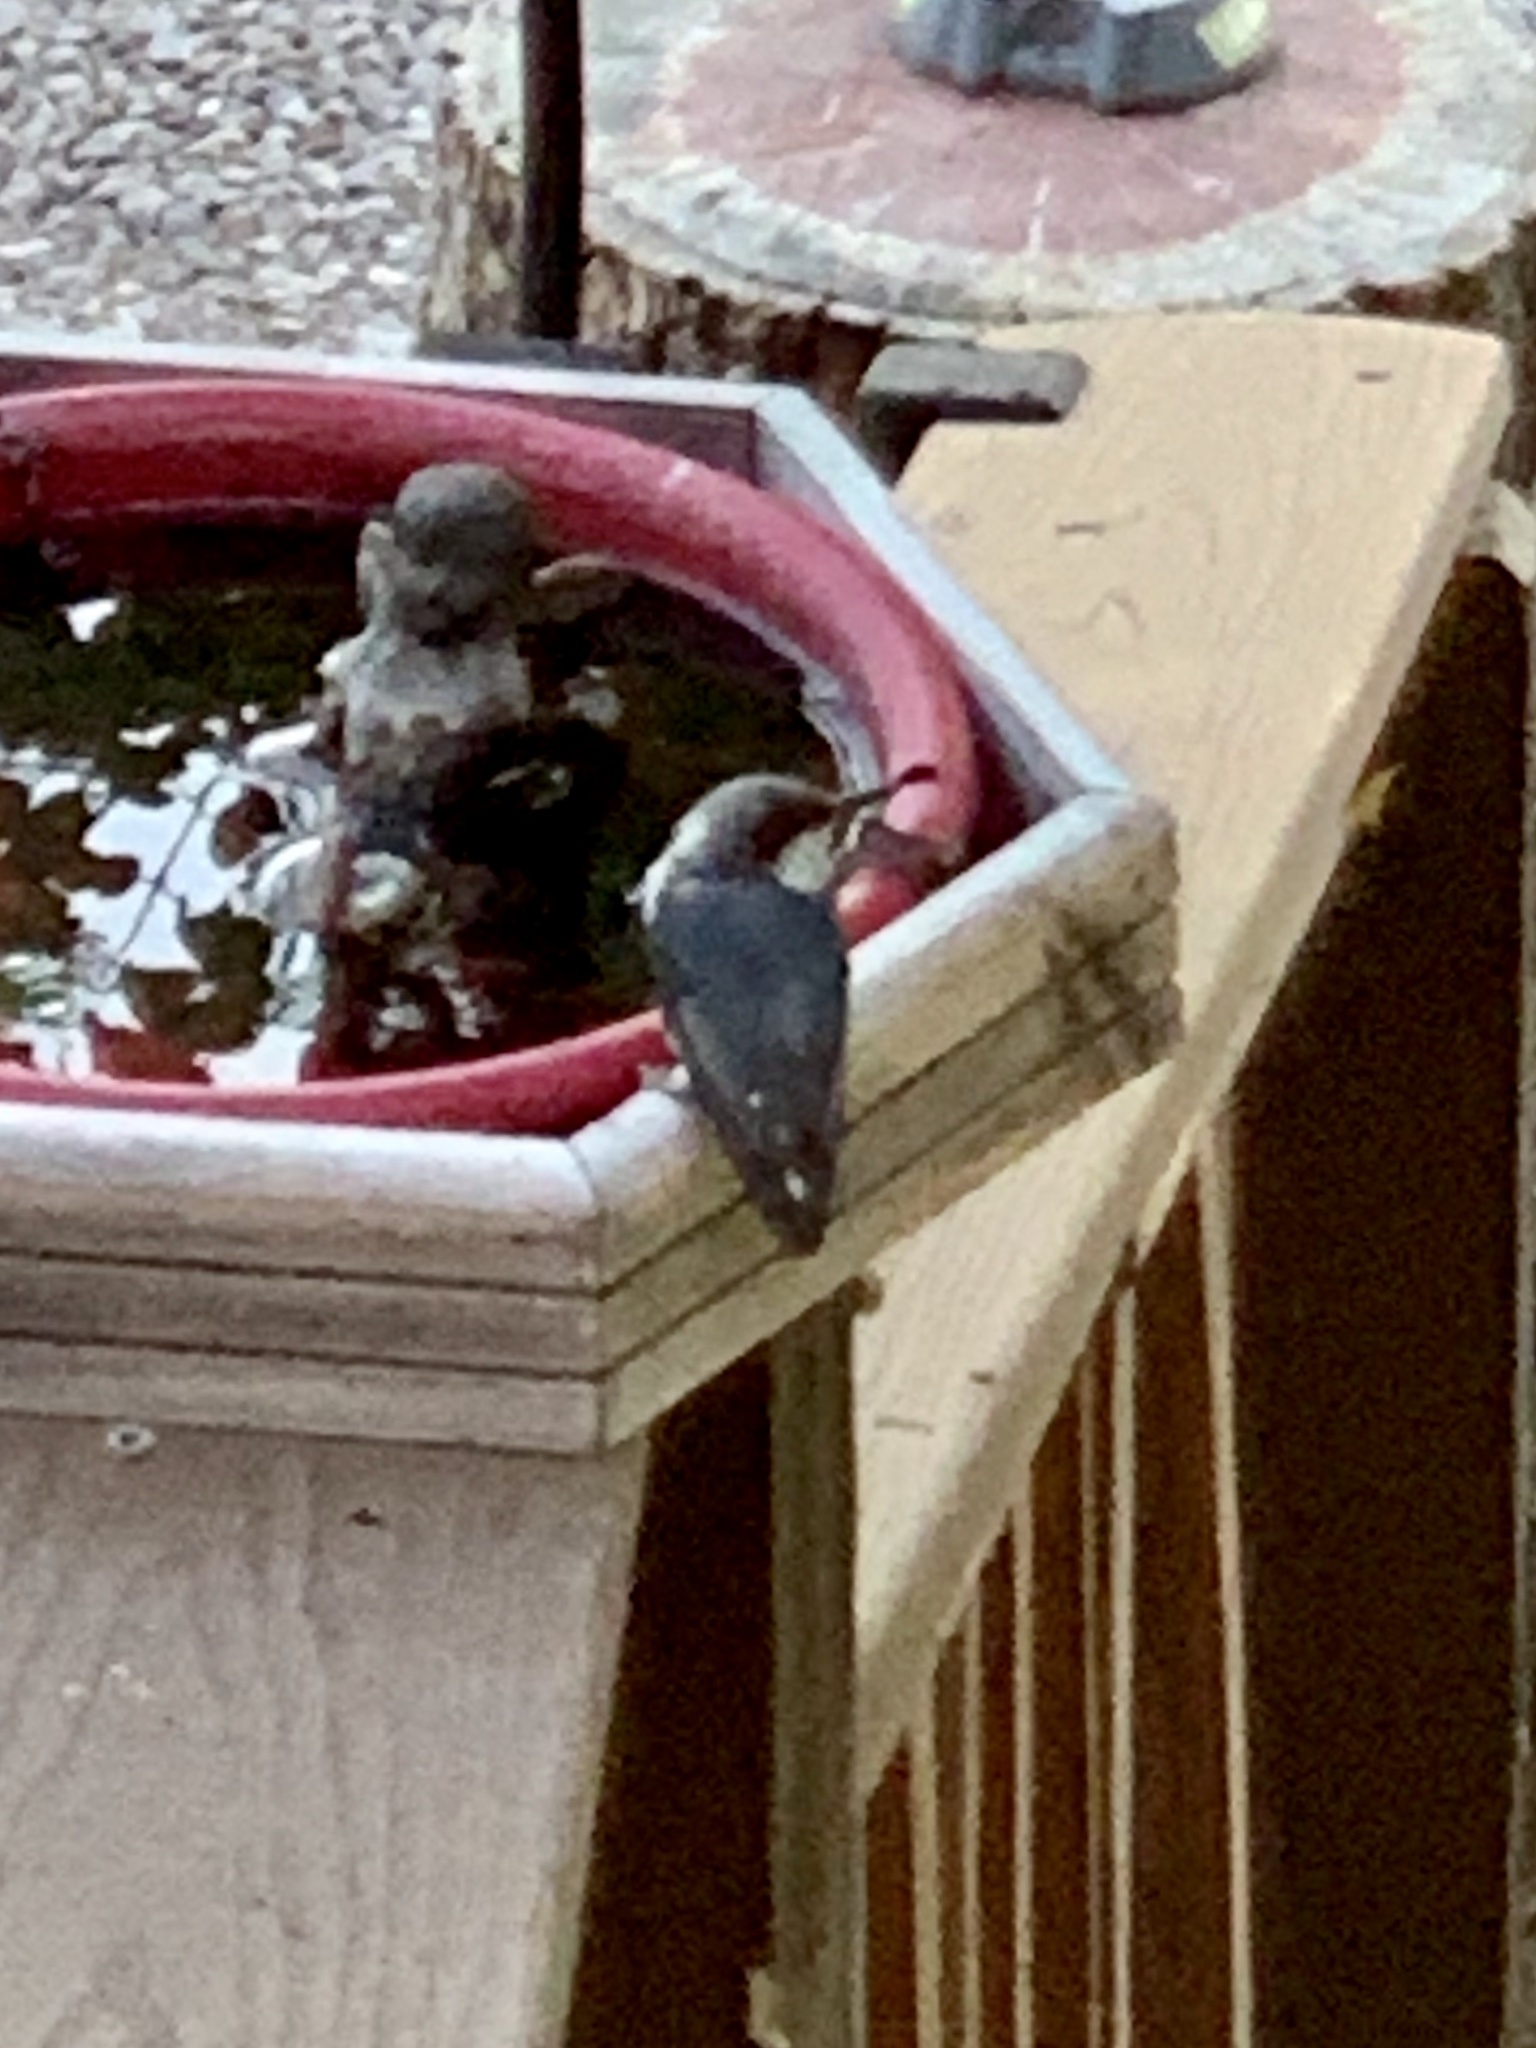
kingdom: Animalia
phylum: Chordata
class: Aves
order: Passeriformes
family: Sittidae
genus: Sitta
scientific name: Sitta pygmaea
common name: Pygmy nuthatch
